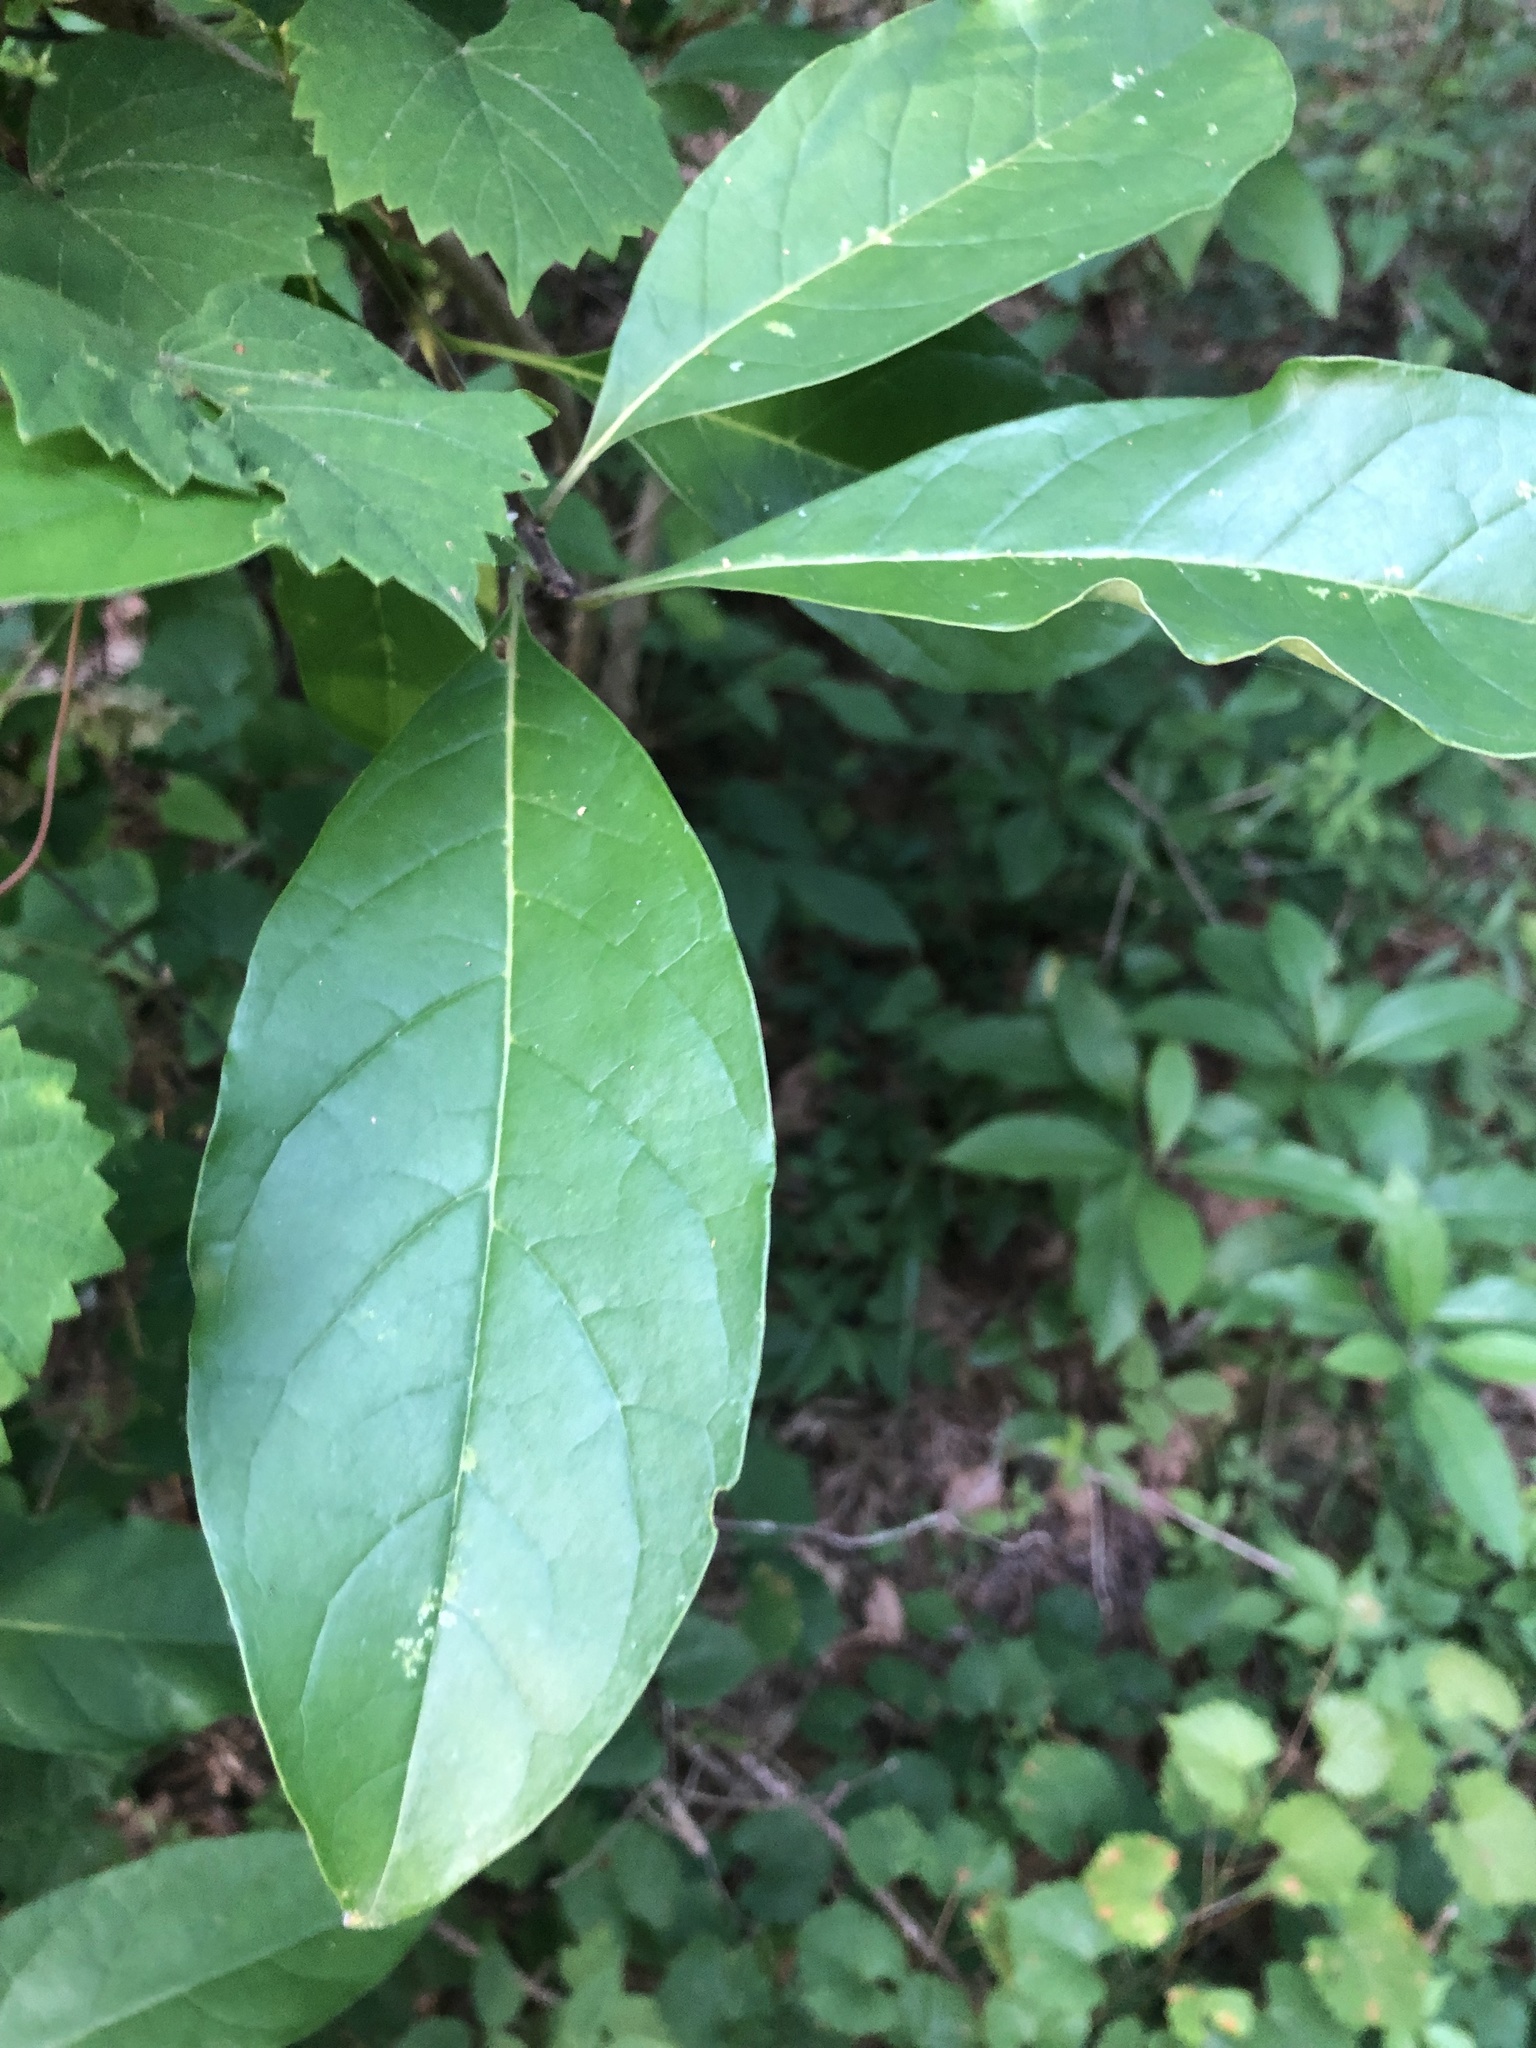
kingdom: Plantae
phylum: Tracheophyta
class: Magnoliopsida
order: Lamiales
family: Oleaceae
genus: Chionanthus
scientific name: Chionanthus virginicus
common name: American fringetree
